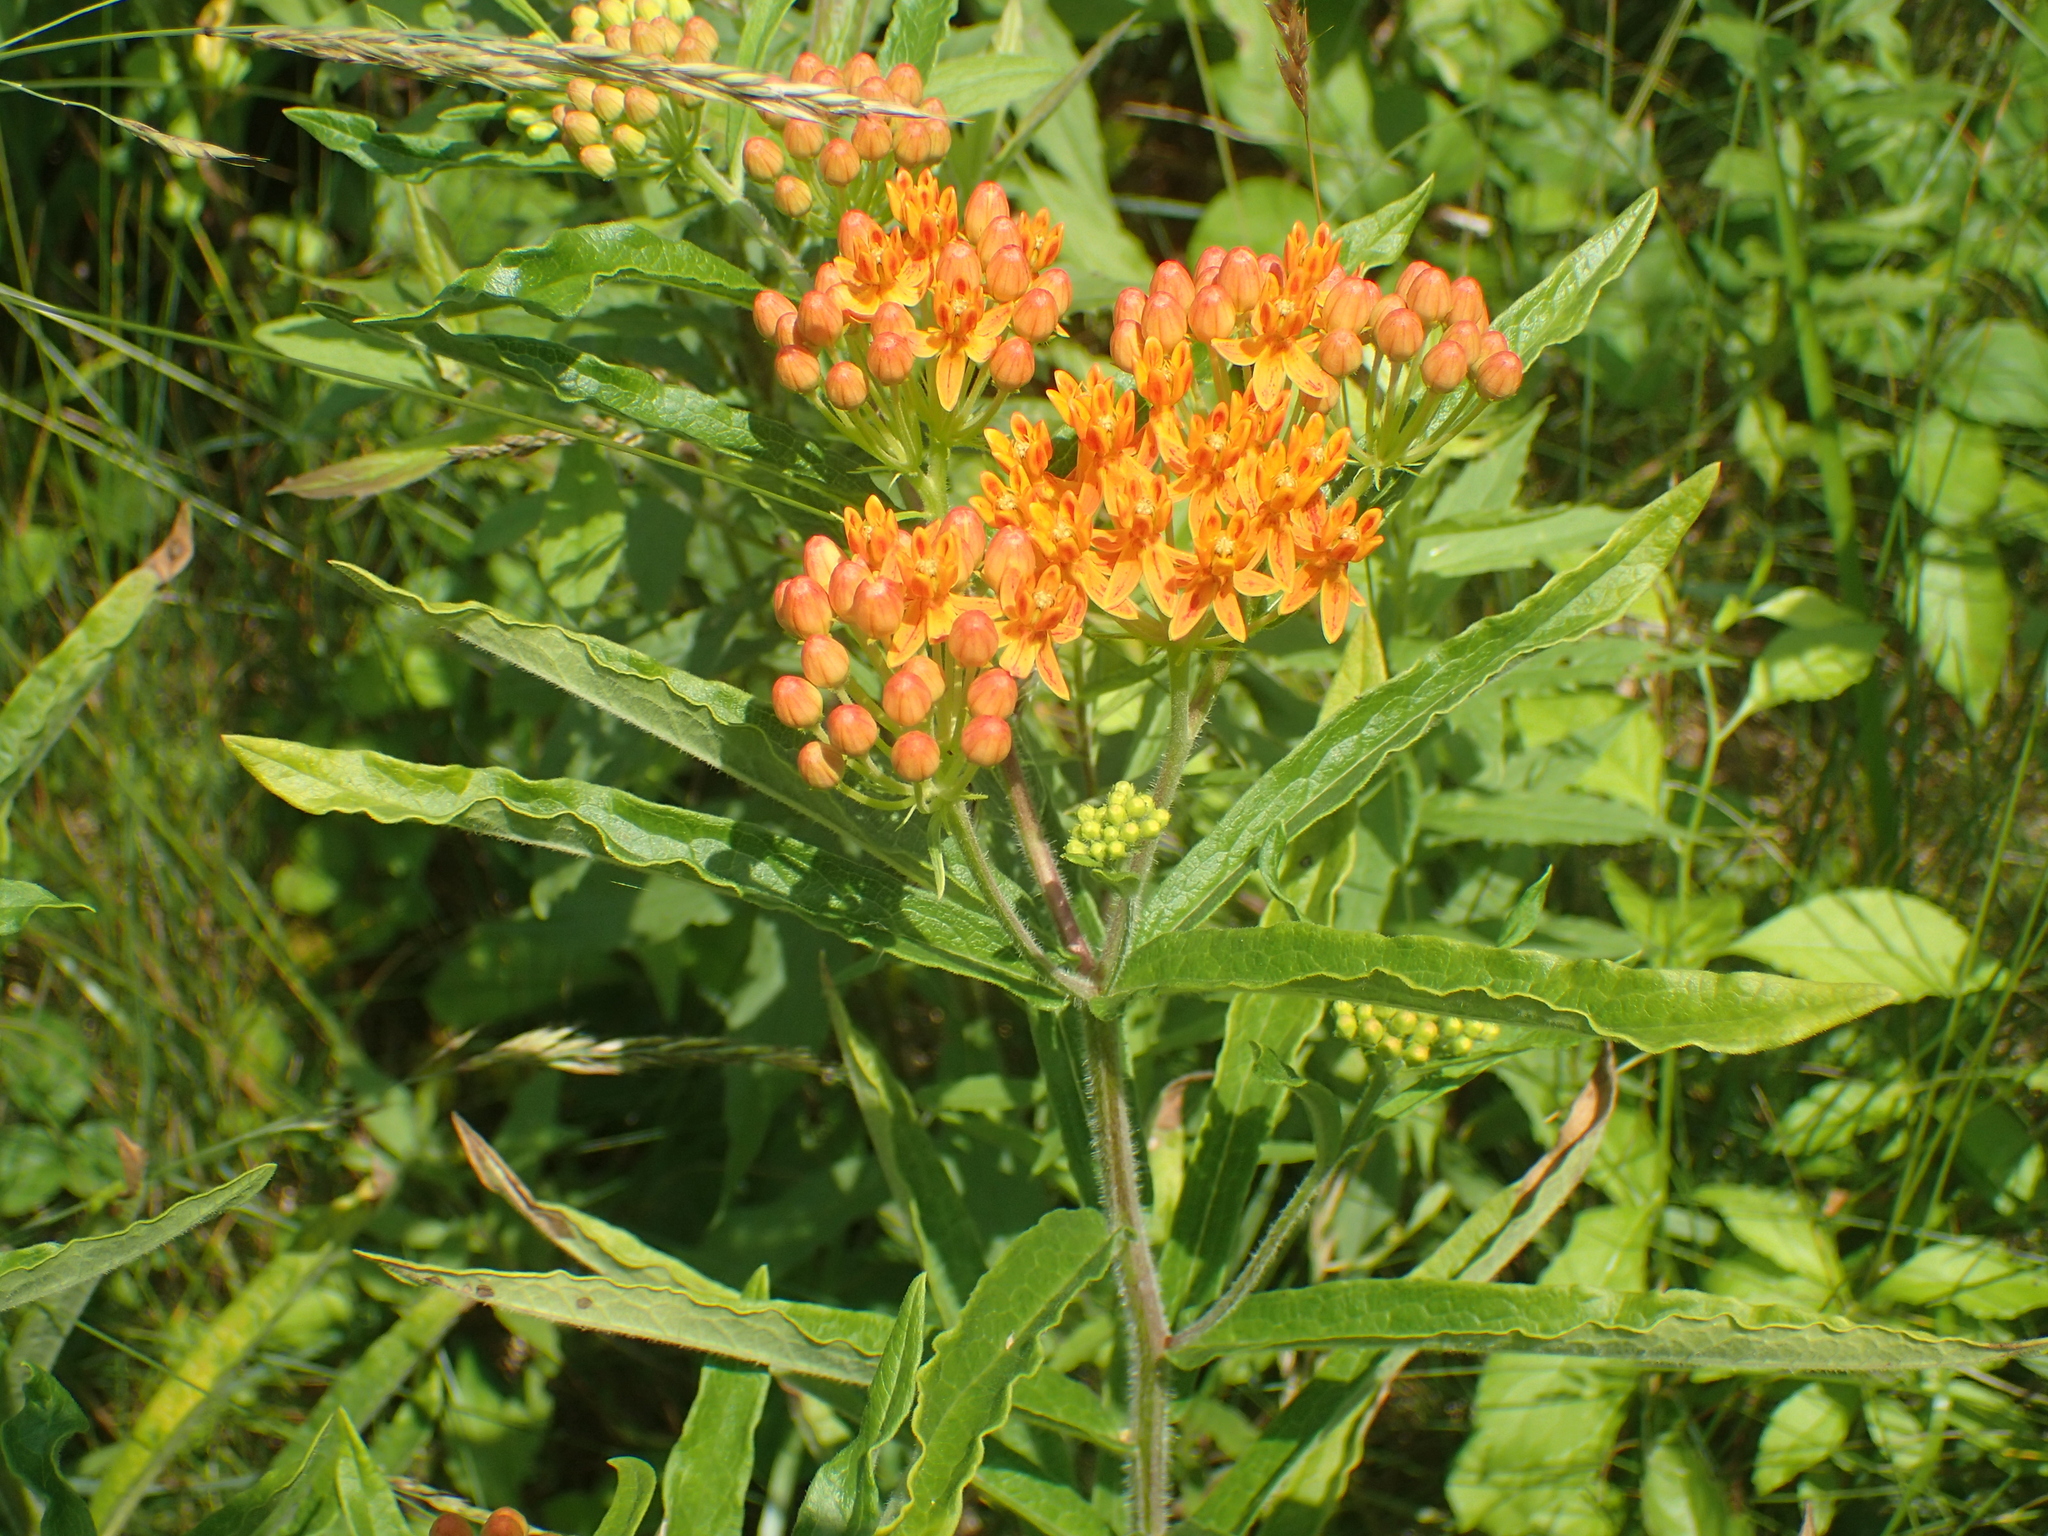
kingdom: Plantae
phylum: Tracheophyta
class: Magnoliopsida
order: Gentianales
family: Apocynaceae
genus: Asclepias
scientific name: Asclepias tuberosa
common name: Butterfly milkweed
